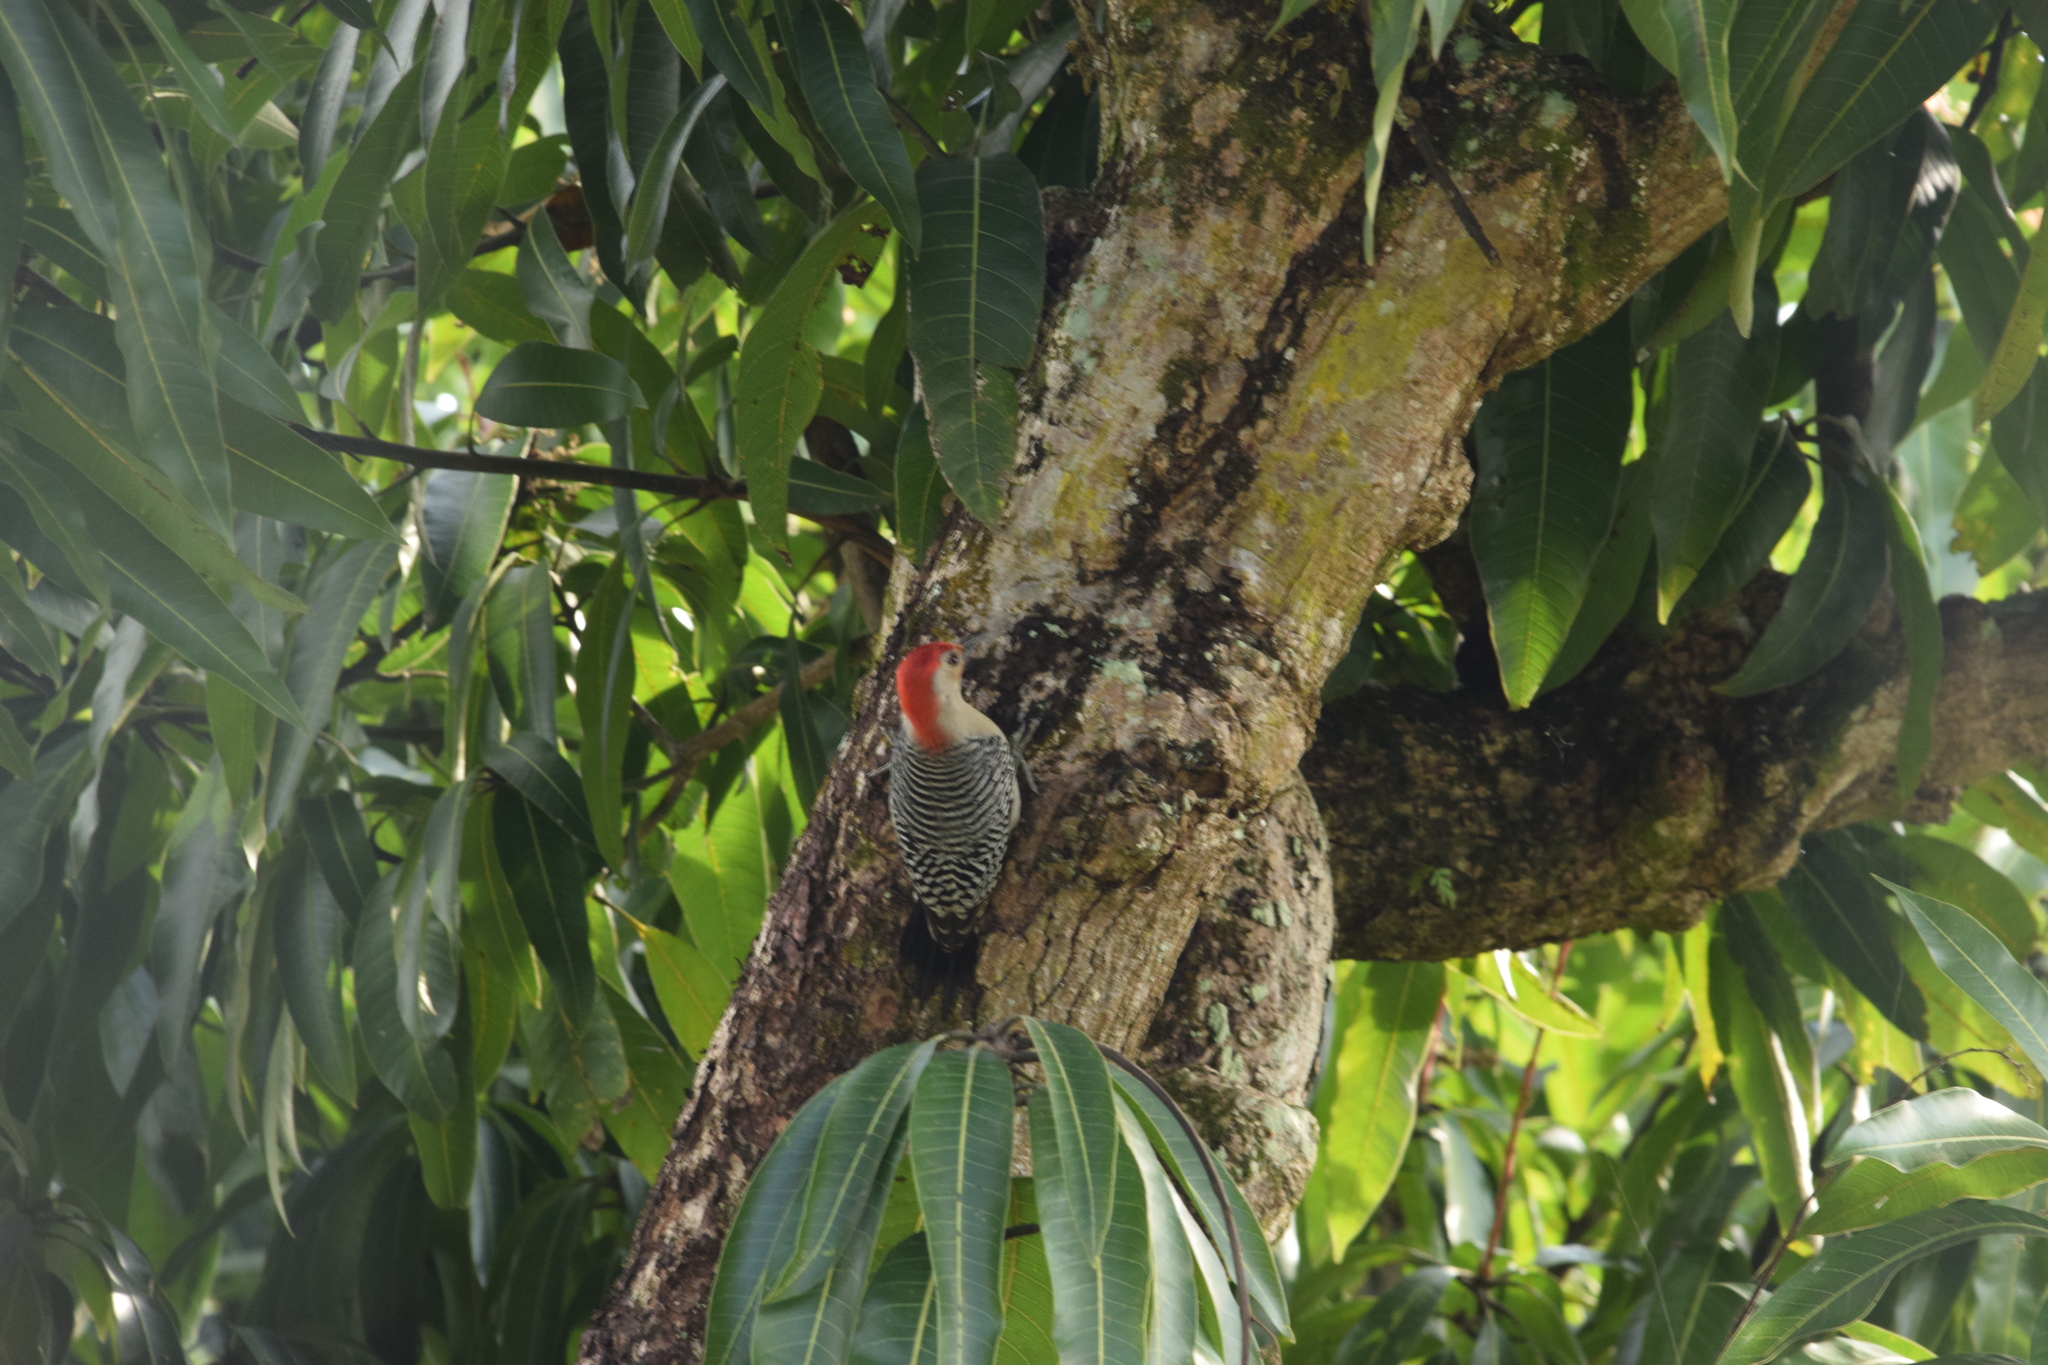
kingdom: Animalia
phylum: Chordata
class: Aves
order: Piciformes
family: Picidae
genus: Melanerpes
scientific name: Melanerpes carolinus
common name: Red-bellied woodpecker
